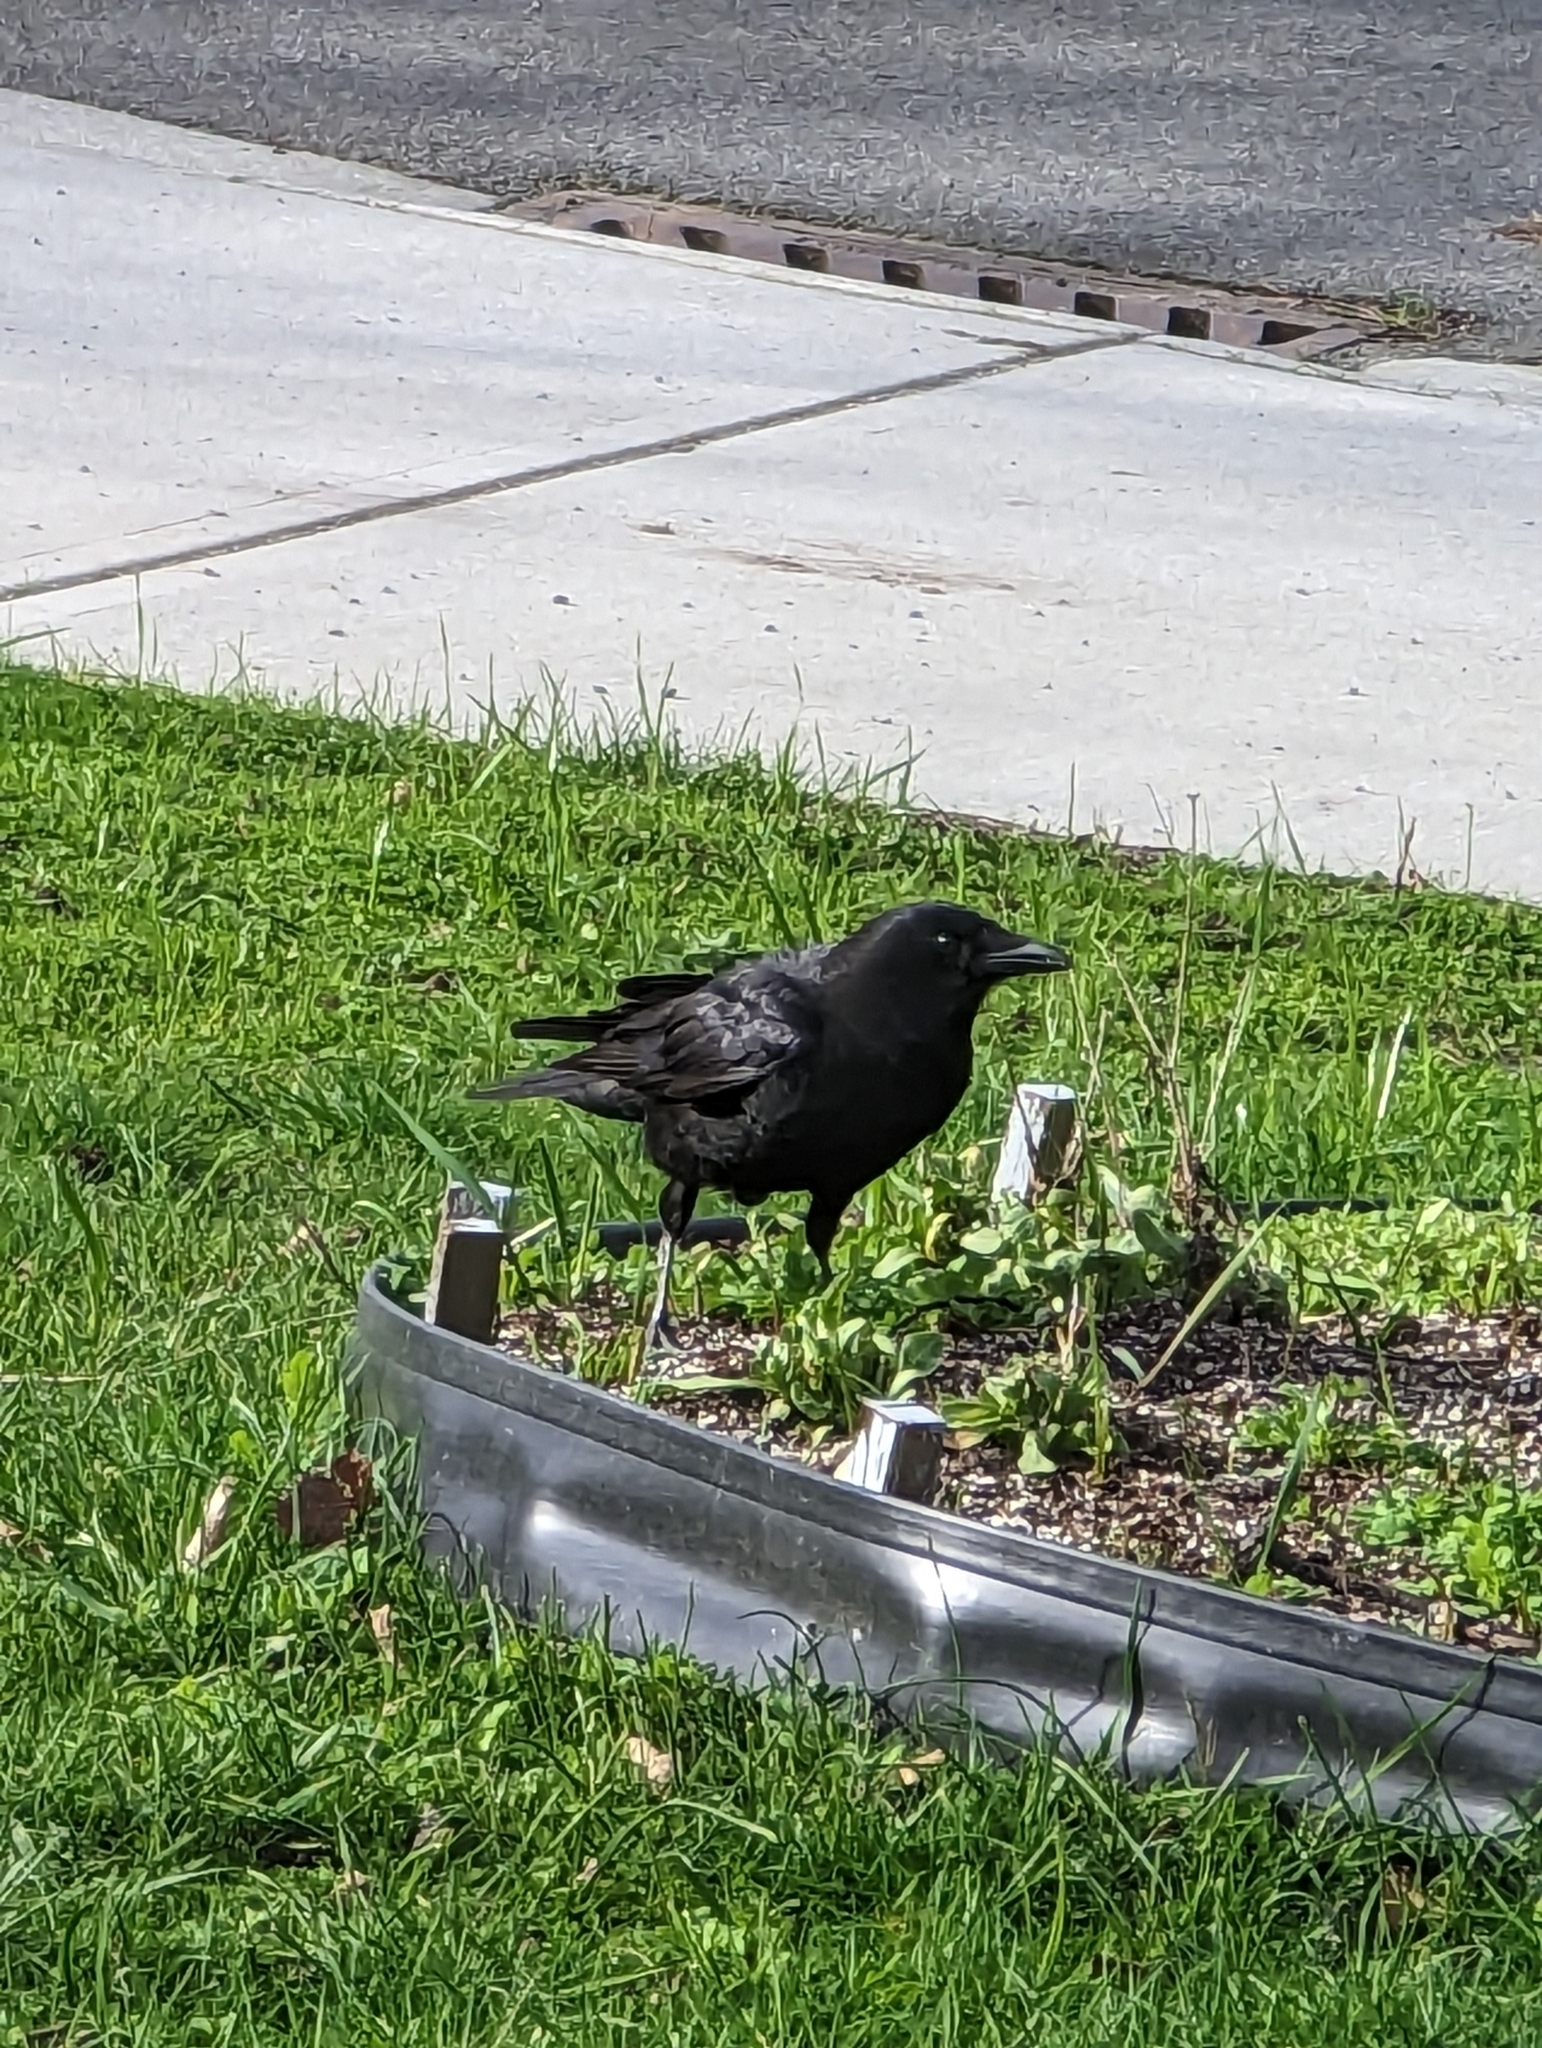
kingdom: Animalia
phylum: Chordata
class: Aves
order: Passeriformes
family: Corvidae
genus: Corvus
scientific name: Corvus brachyrhynchos
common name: American crow
